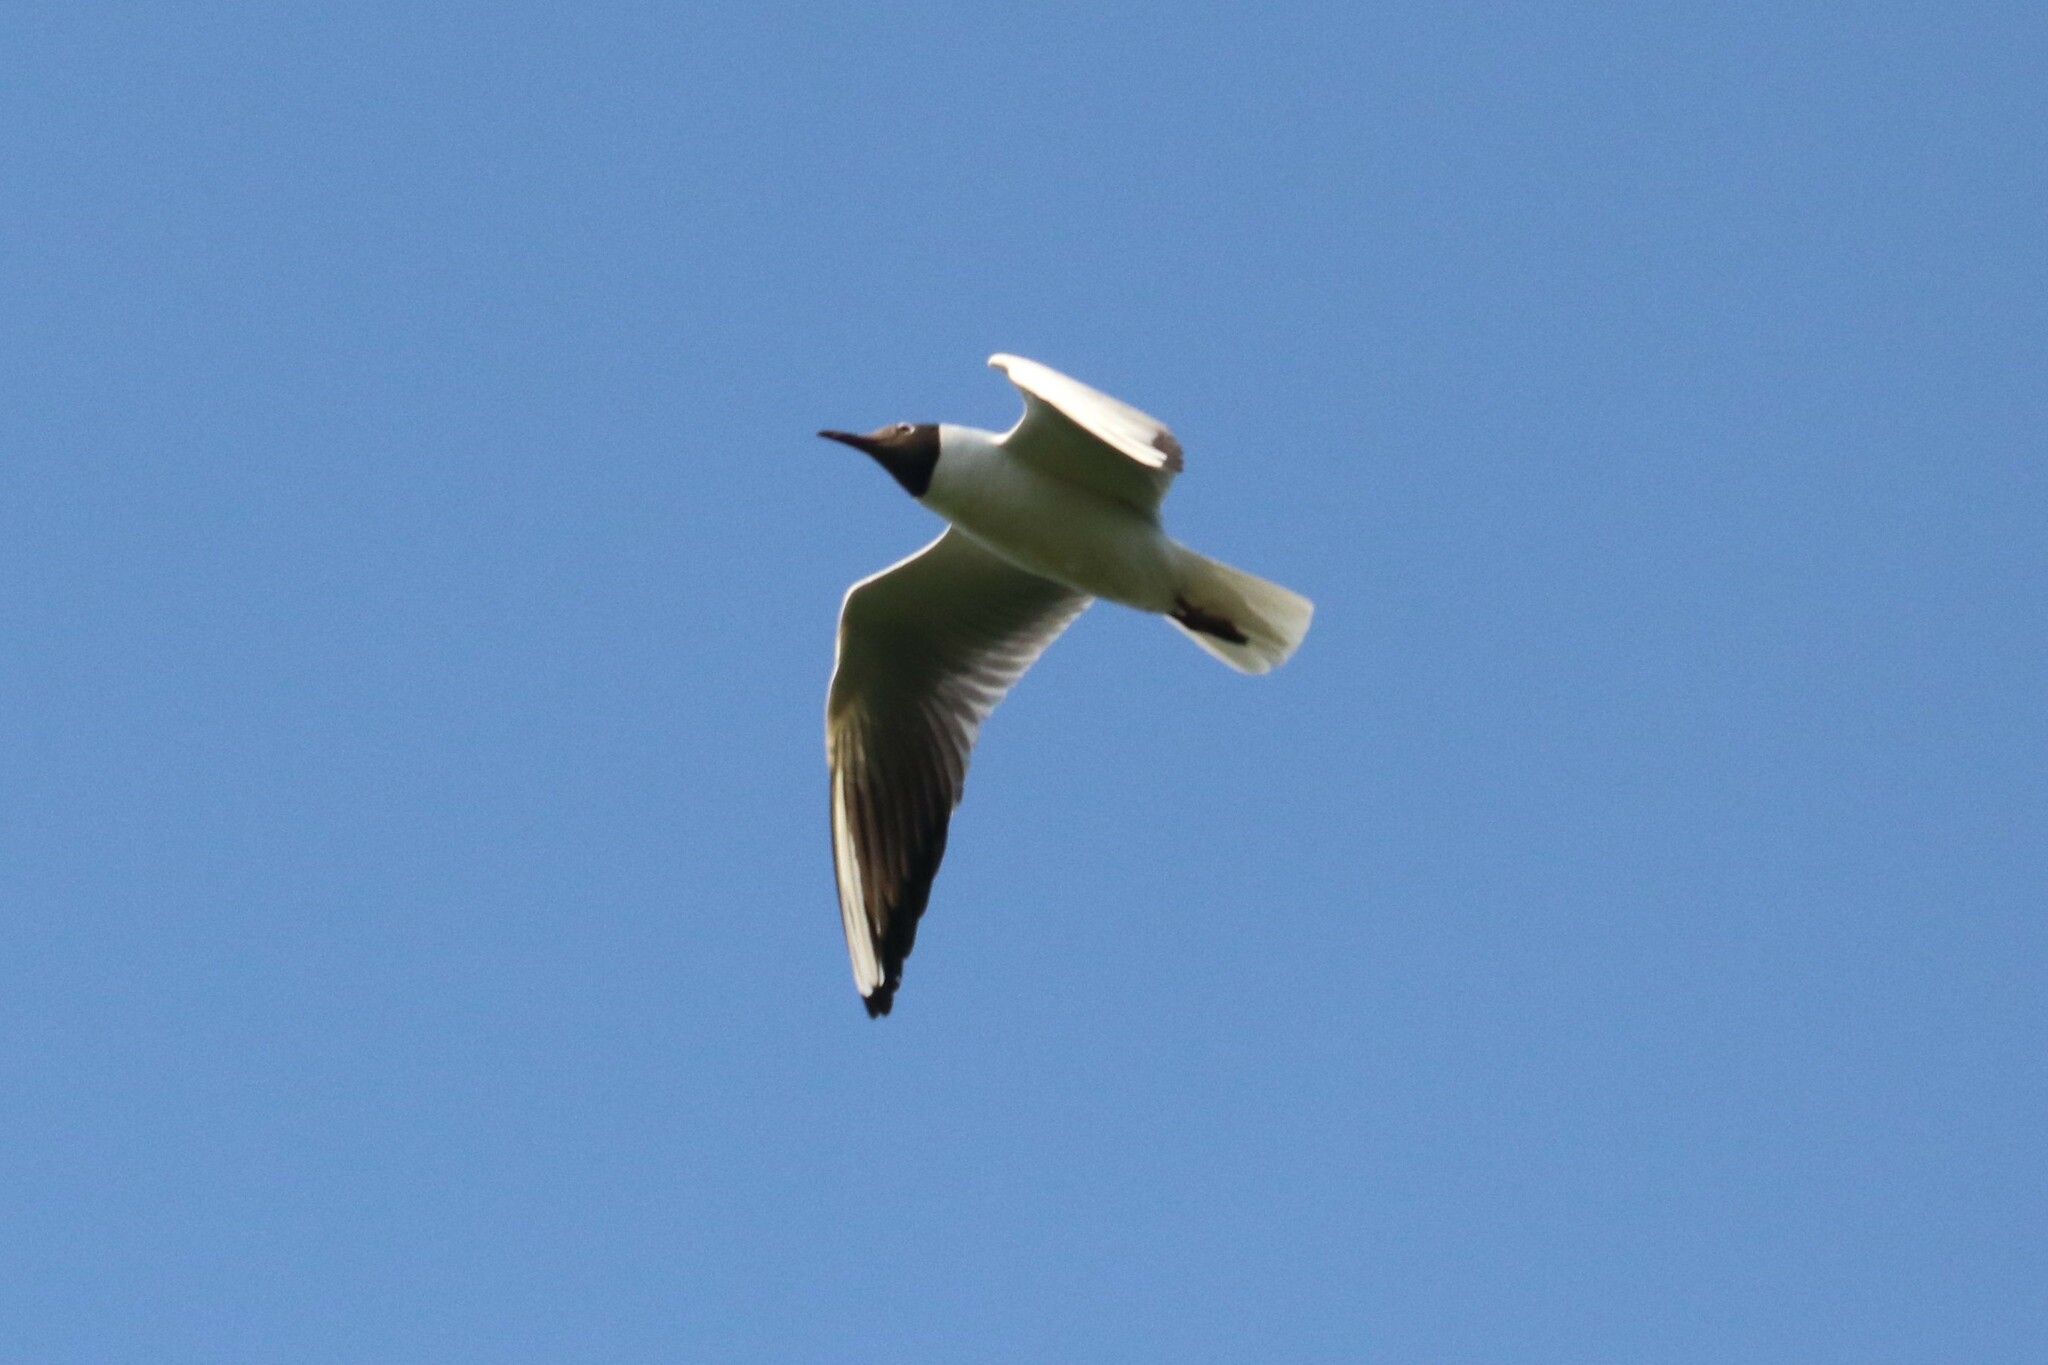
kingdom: Animalia
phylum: Chordata
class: Aves
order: Charadriiformes
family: Laridae
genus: Chroicocephalus
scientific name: Chroicocephalus ridibundus
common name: Black-headed gull
